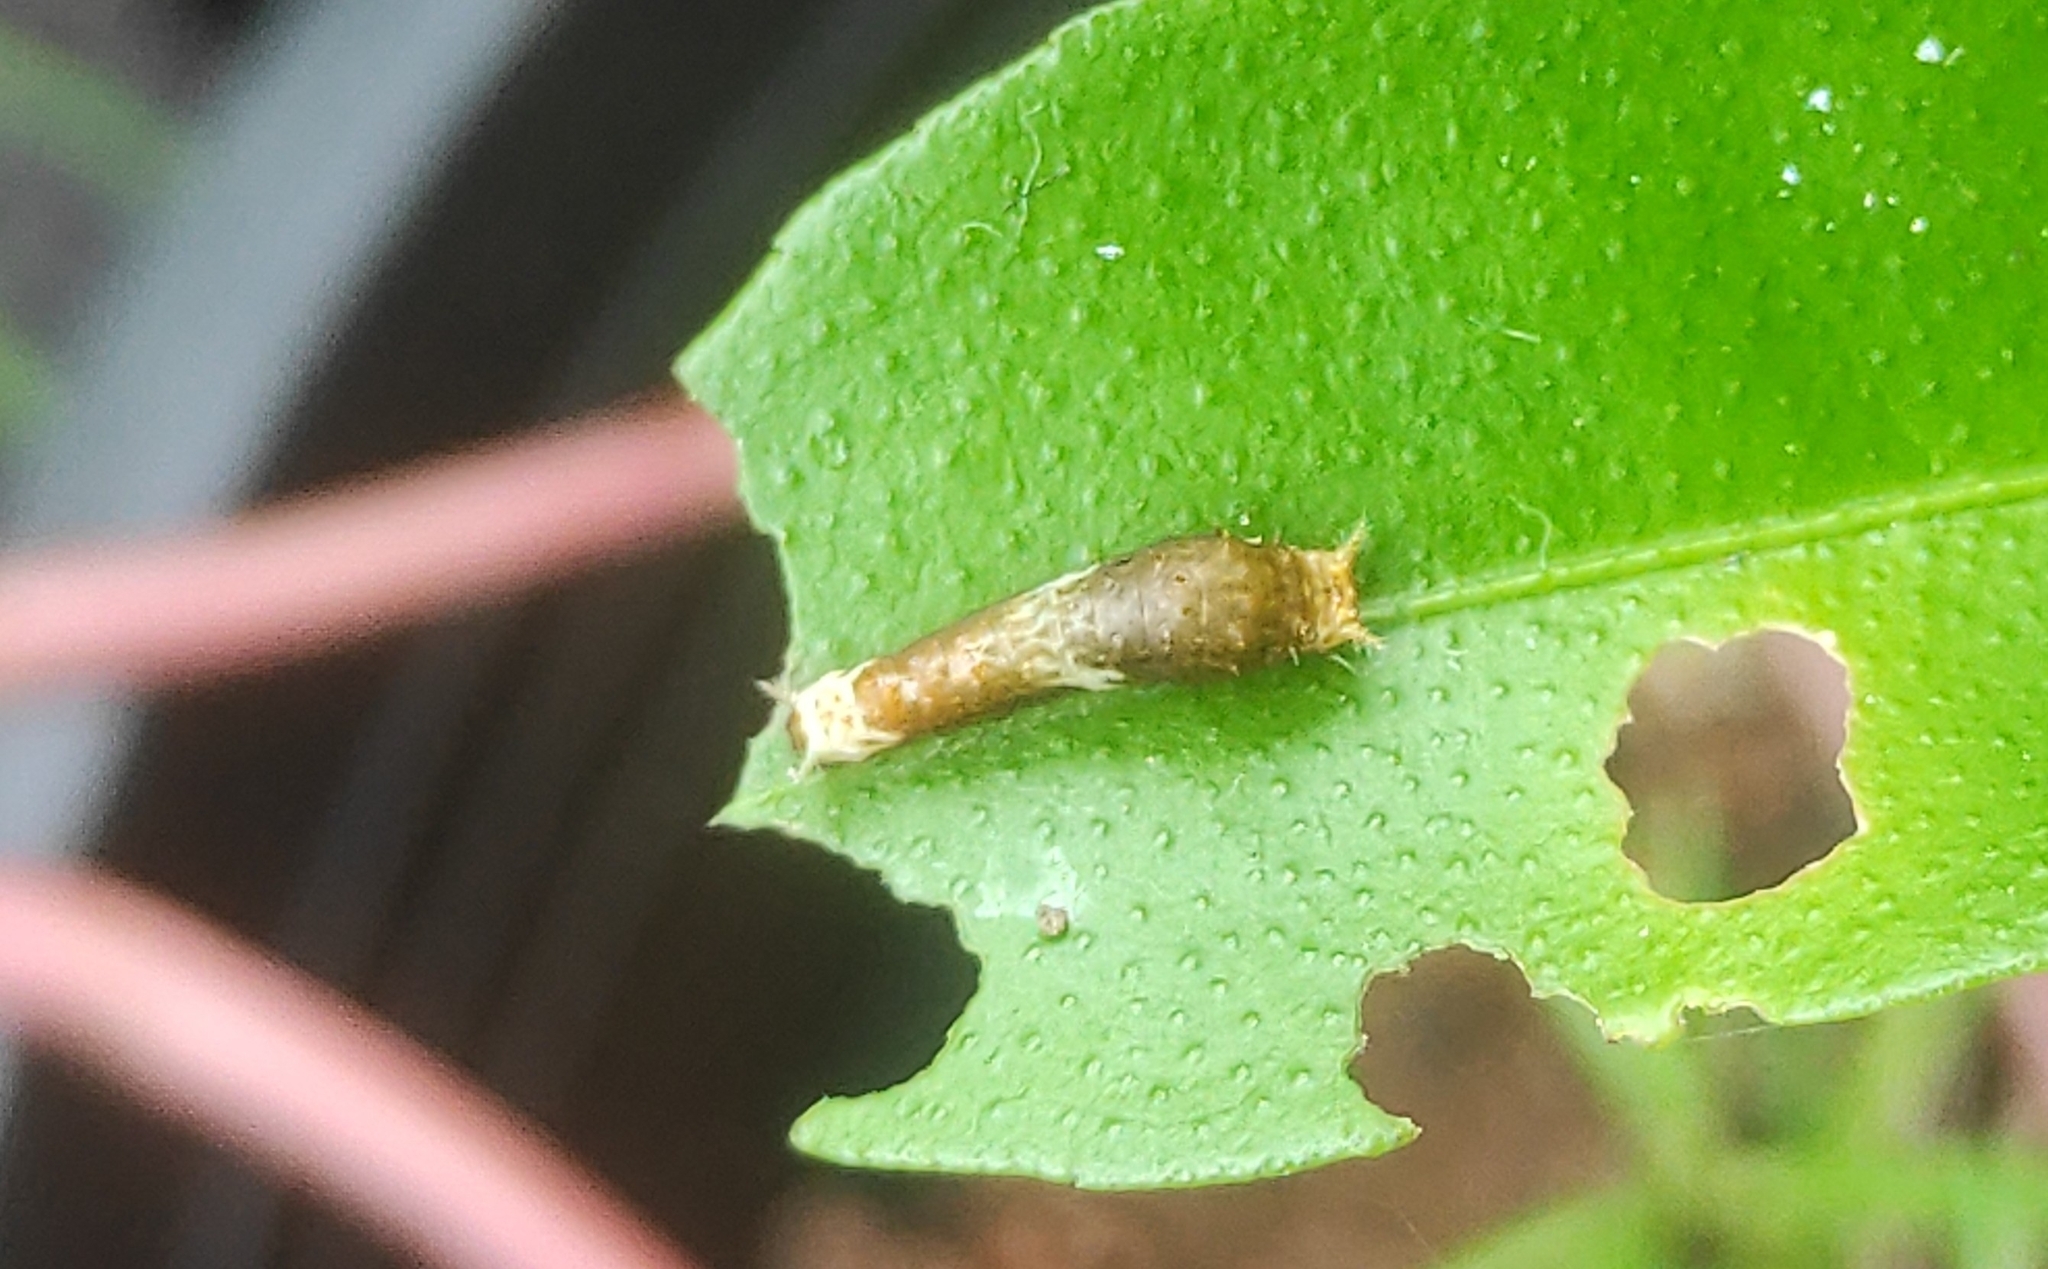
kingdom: Animalia
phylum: Arthropoda
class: Insecta
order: Lepidoptera
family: Papilionidae
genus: Papilio
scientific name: Papilio polytes
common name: Common mormon
